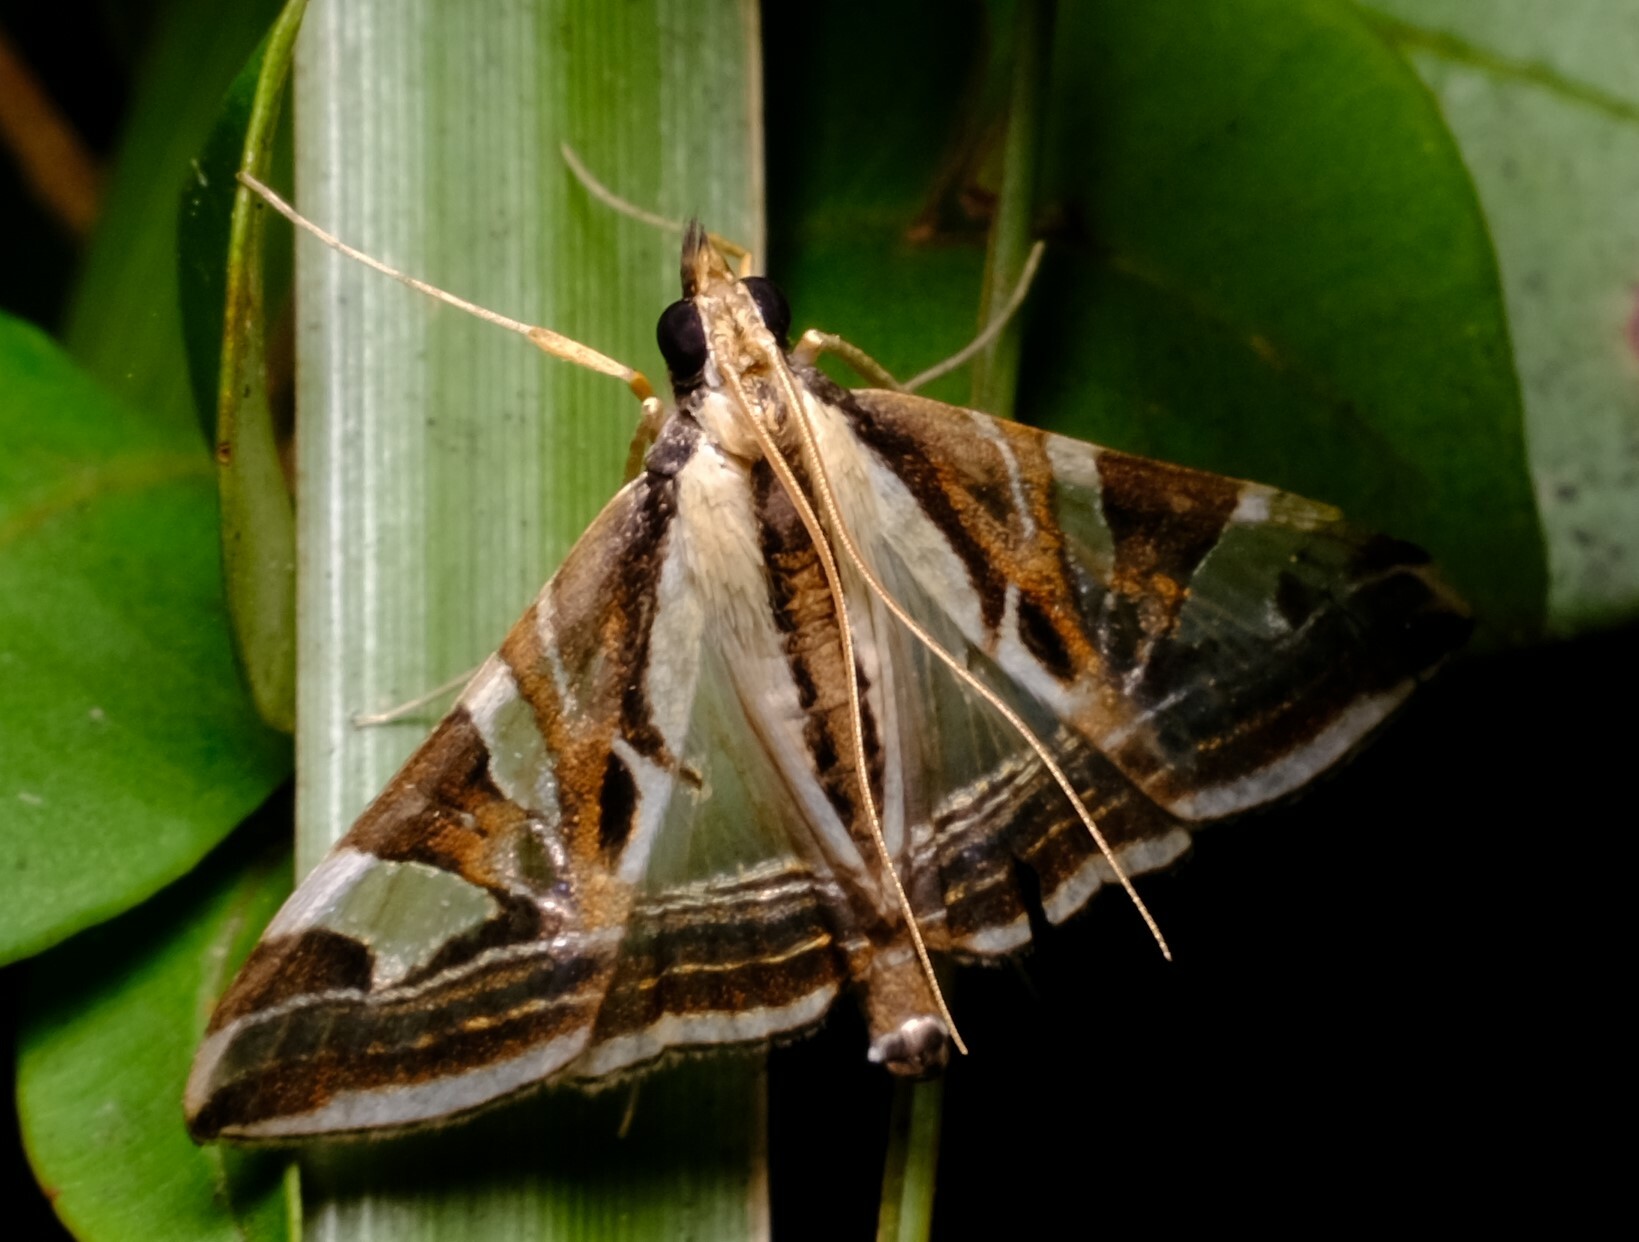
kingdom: Animalia
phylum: Arthropoda
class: Insecta
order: Lepidoptera
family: Crambidae
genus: Agrioglypta
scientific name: Agrioglypta excelsalis
